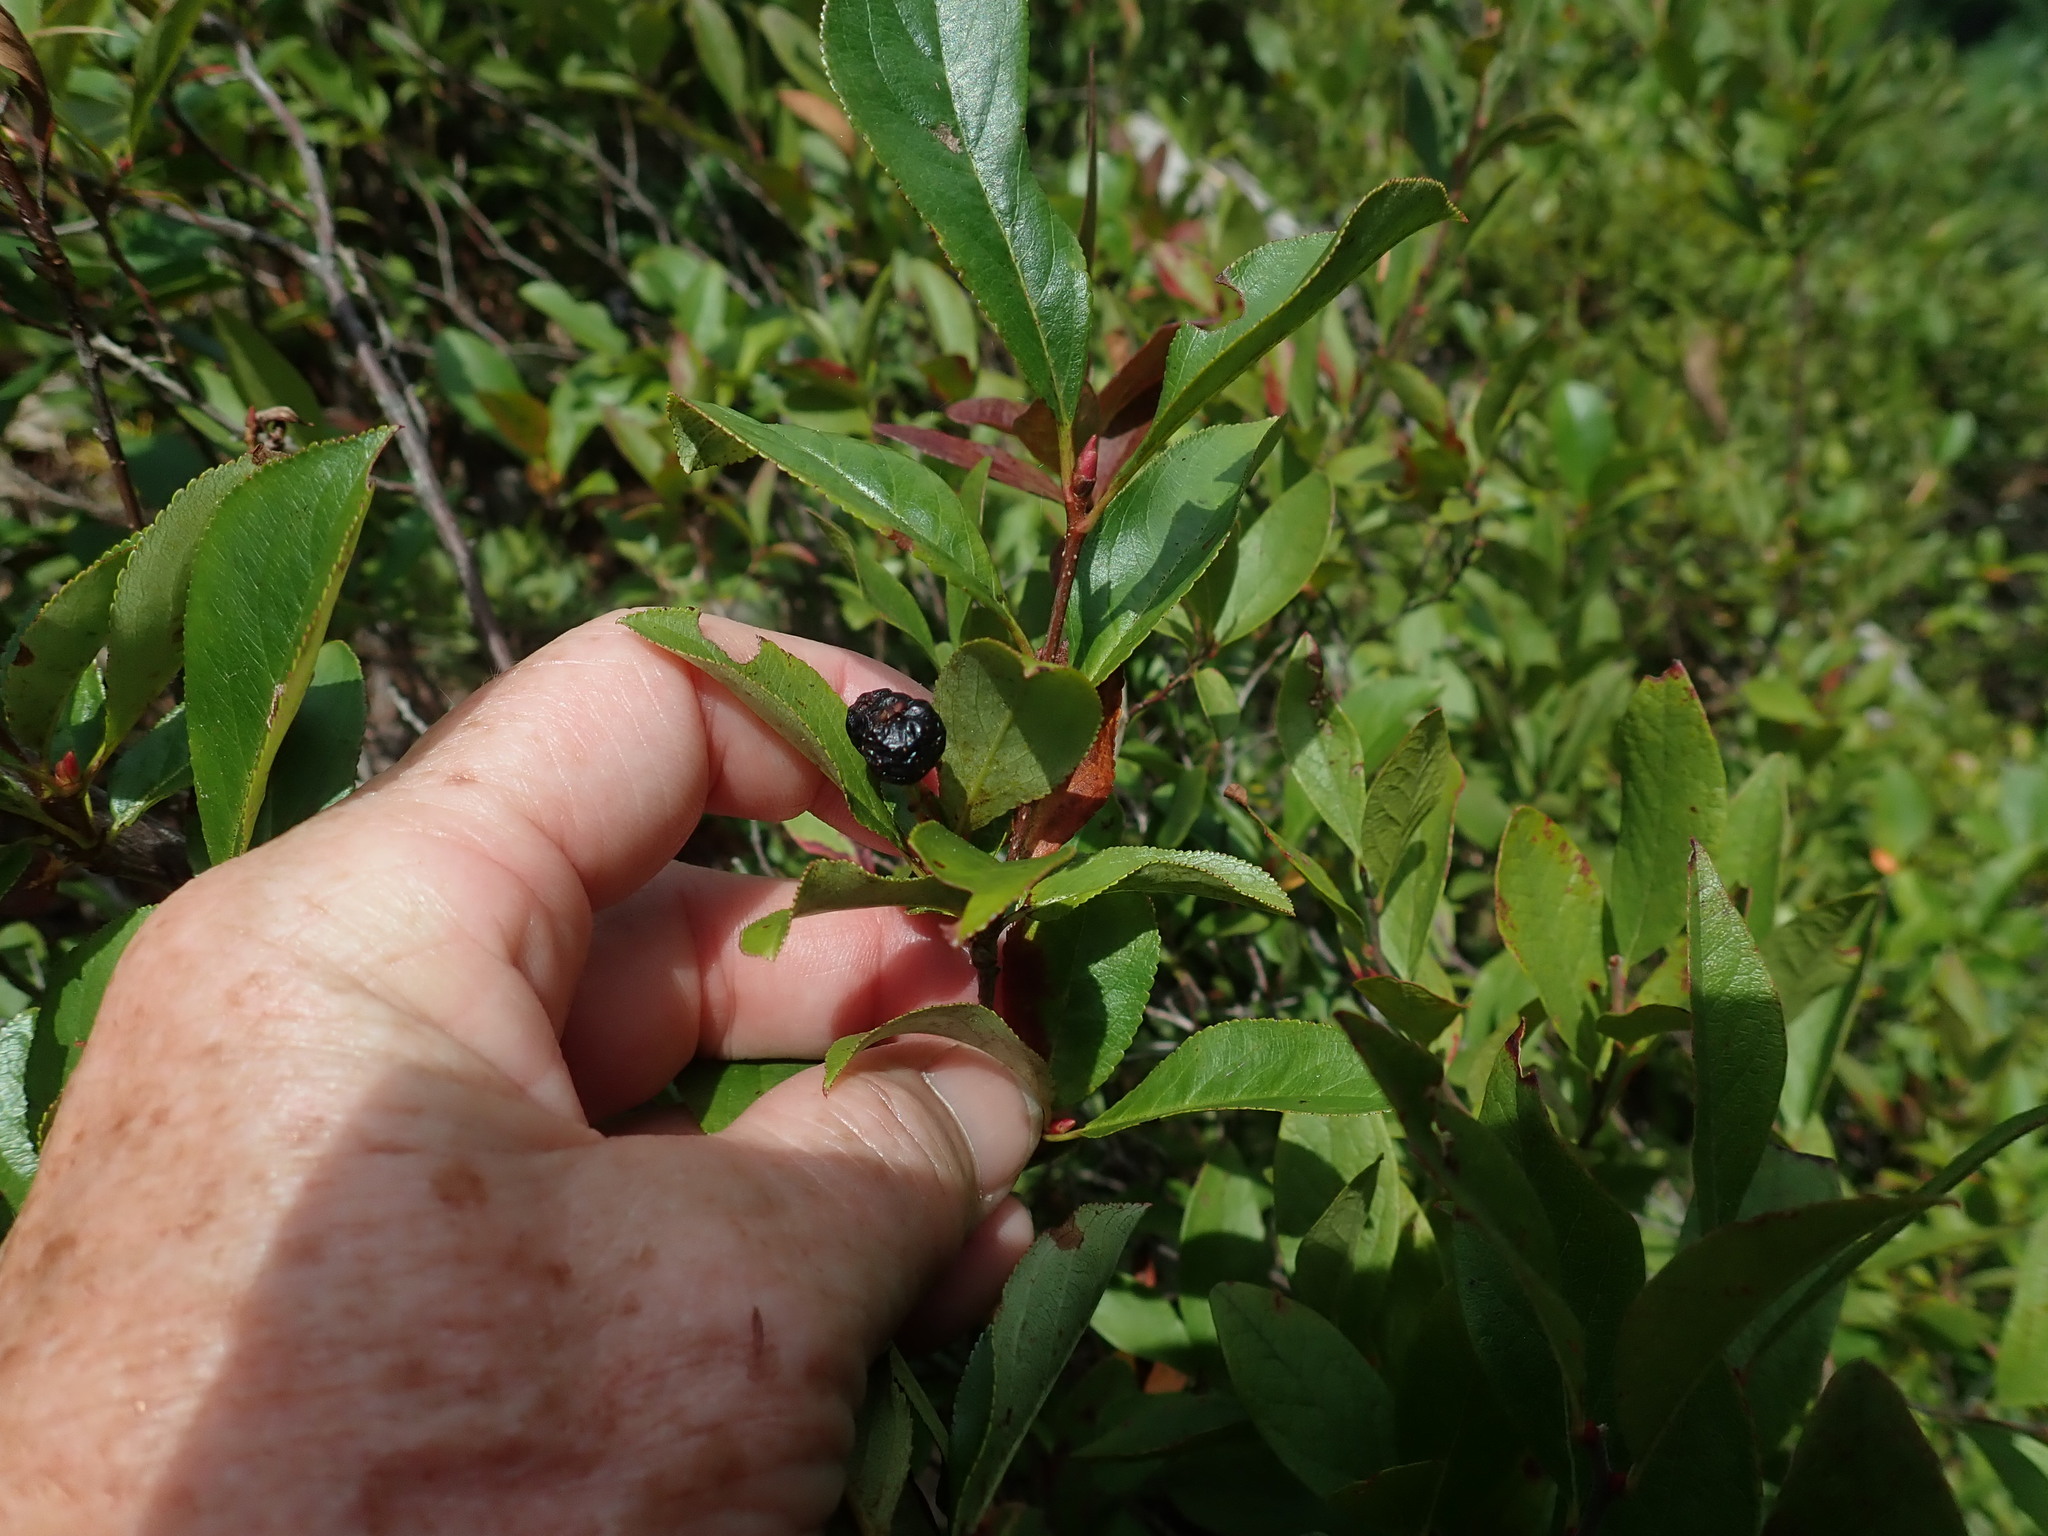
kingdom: Plantae
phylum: Tracheophyta
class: Magnoliopsida
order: Ericales
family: Ericaceae
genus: Gaylussacia
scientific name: Gaylussacia baccata
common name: Black huckleberry
